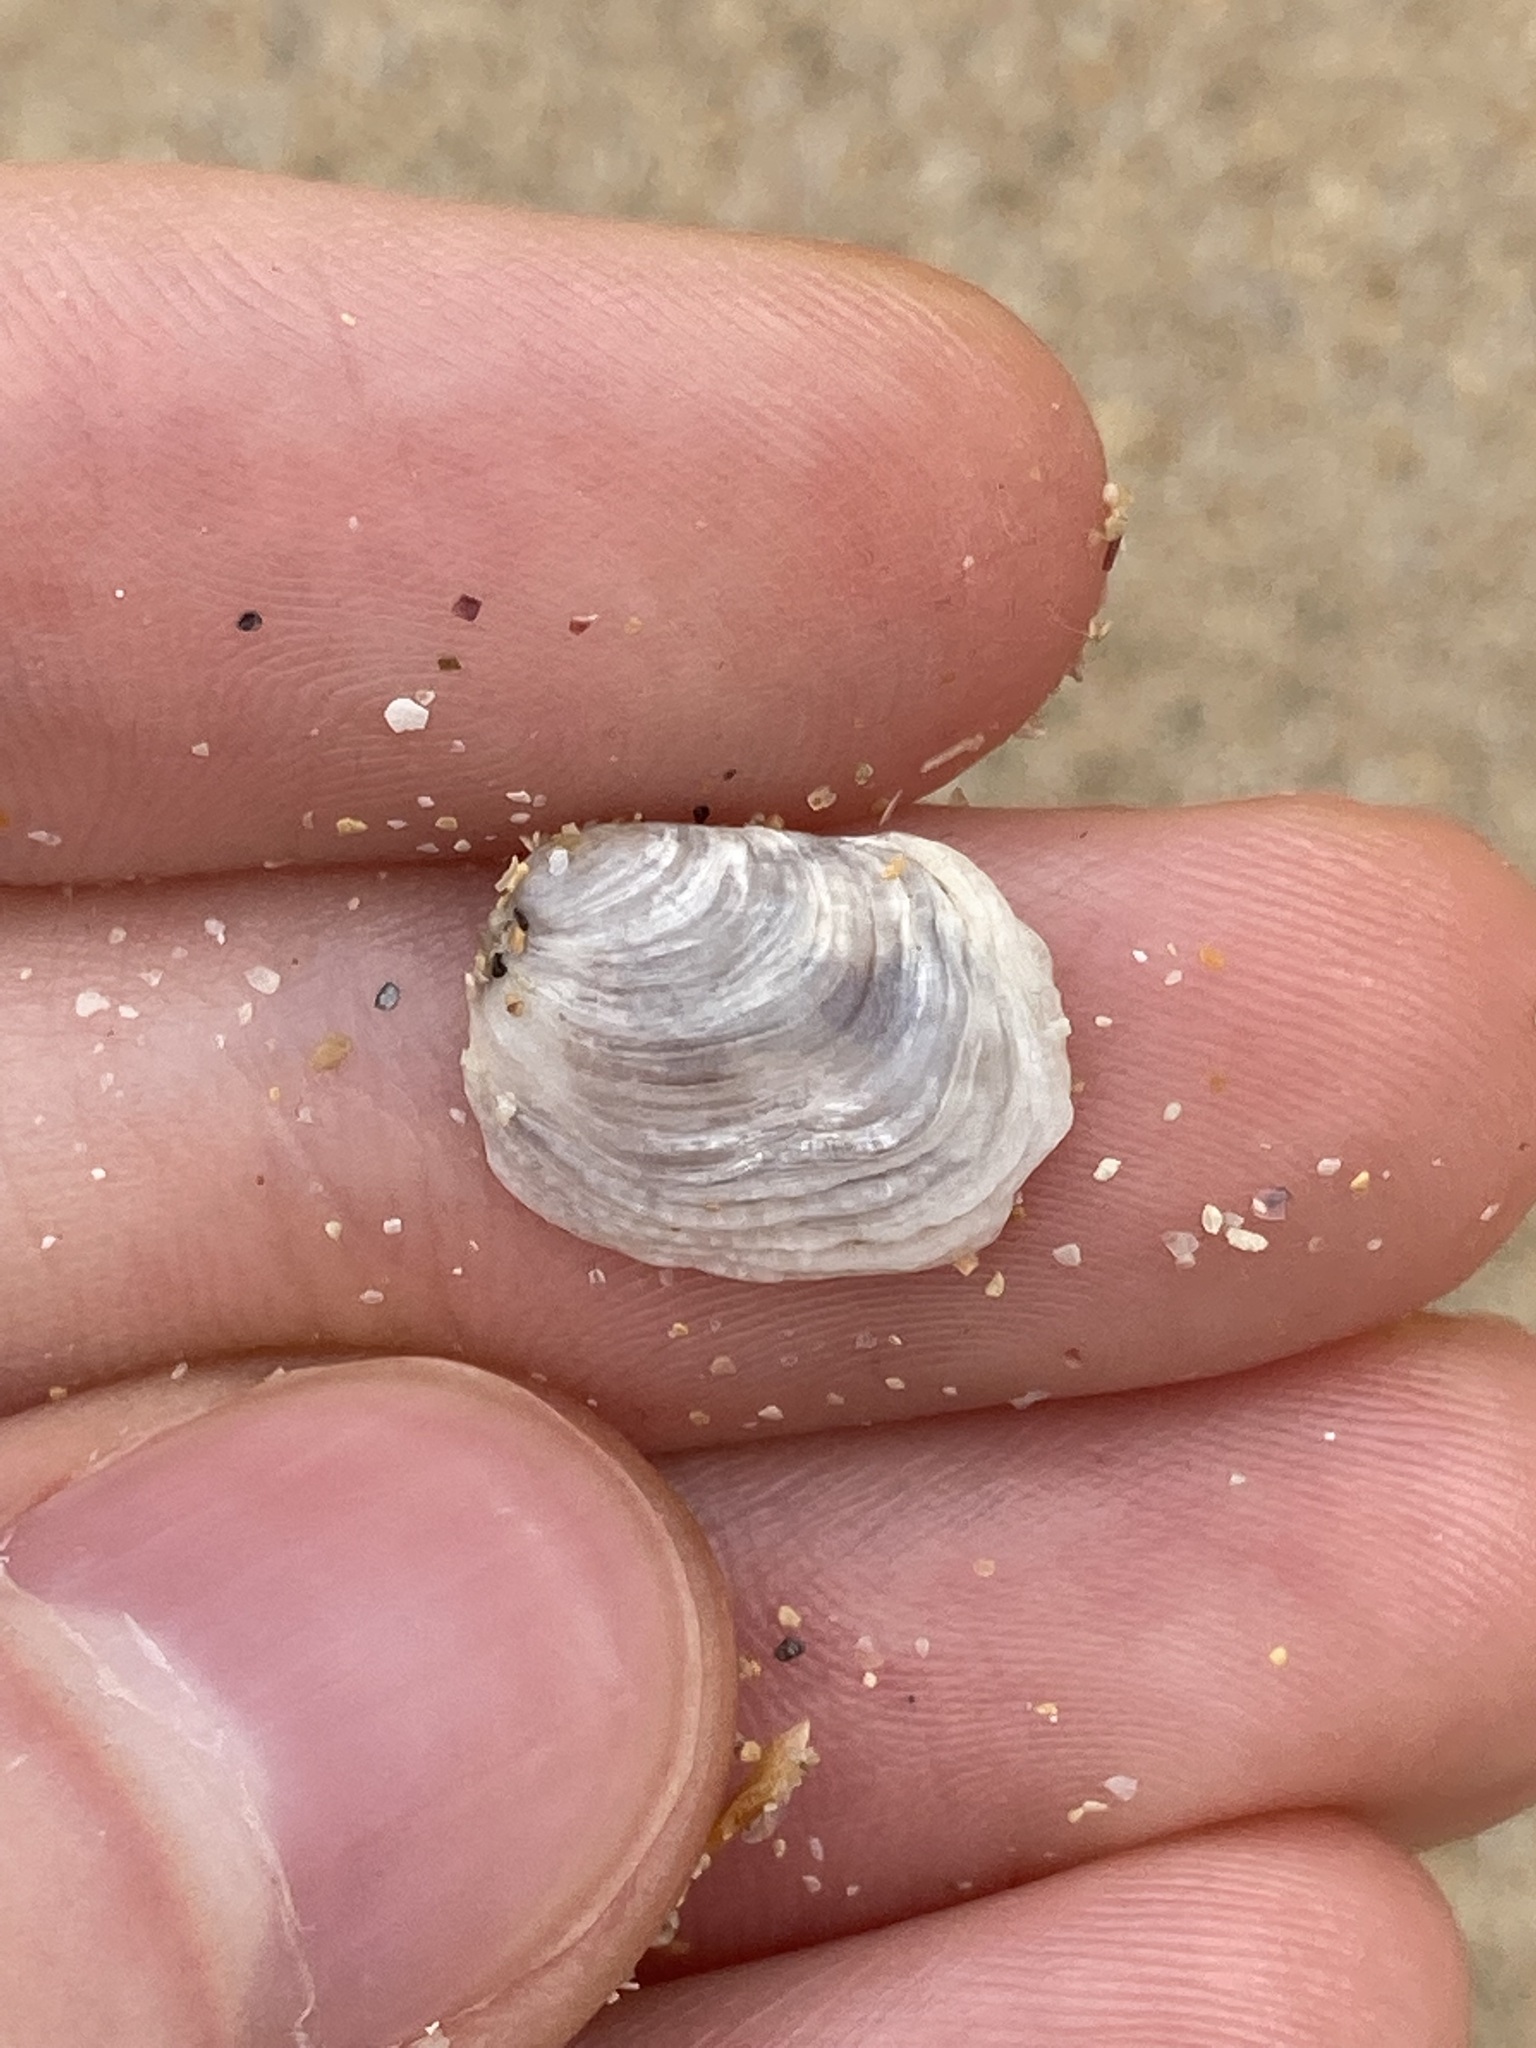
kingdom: Animalia
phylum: Mollusca
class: Bivalvia
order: Venerida
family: Veneridae
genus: Irus
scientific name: Irus cumingii
